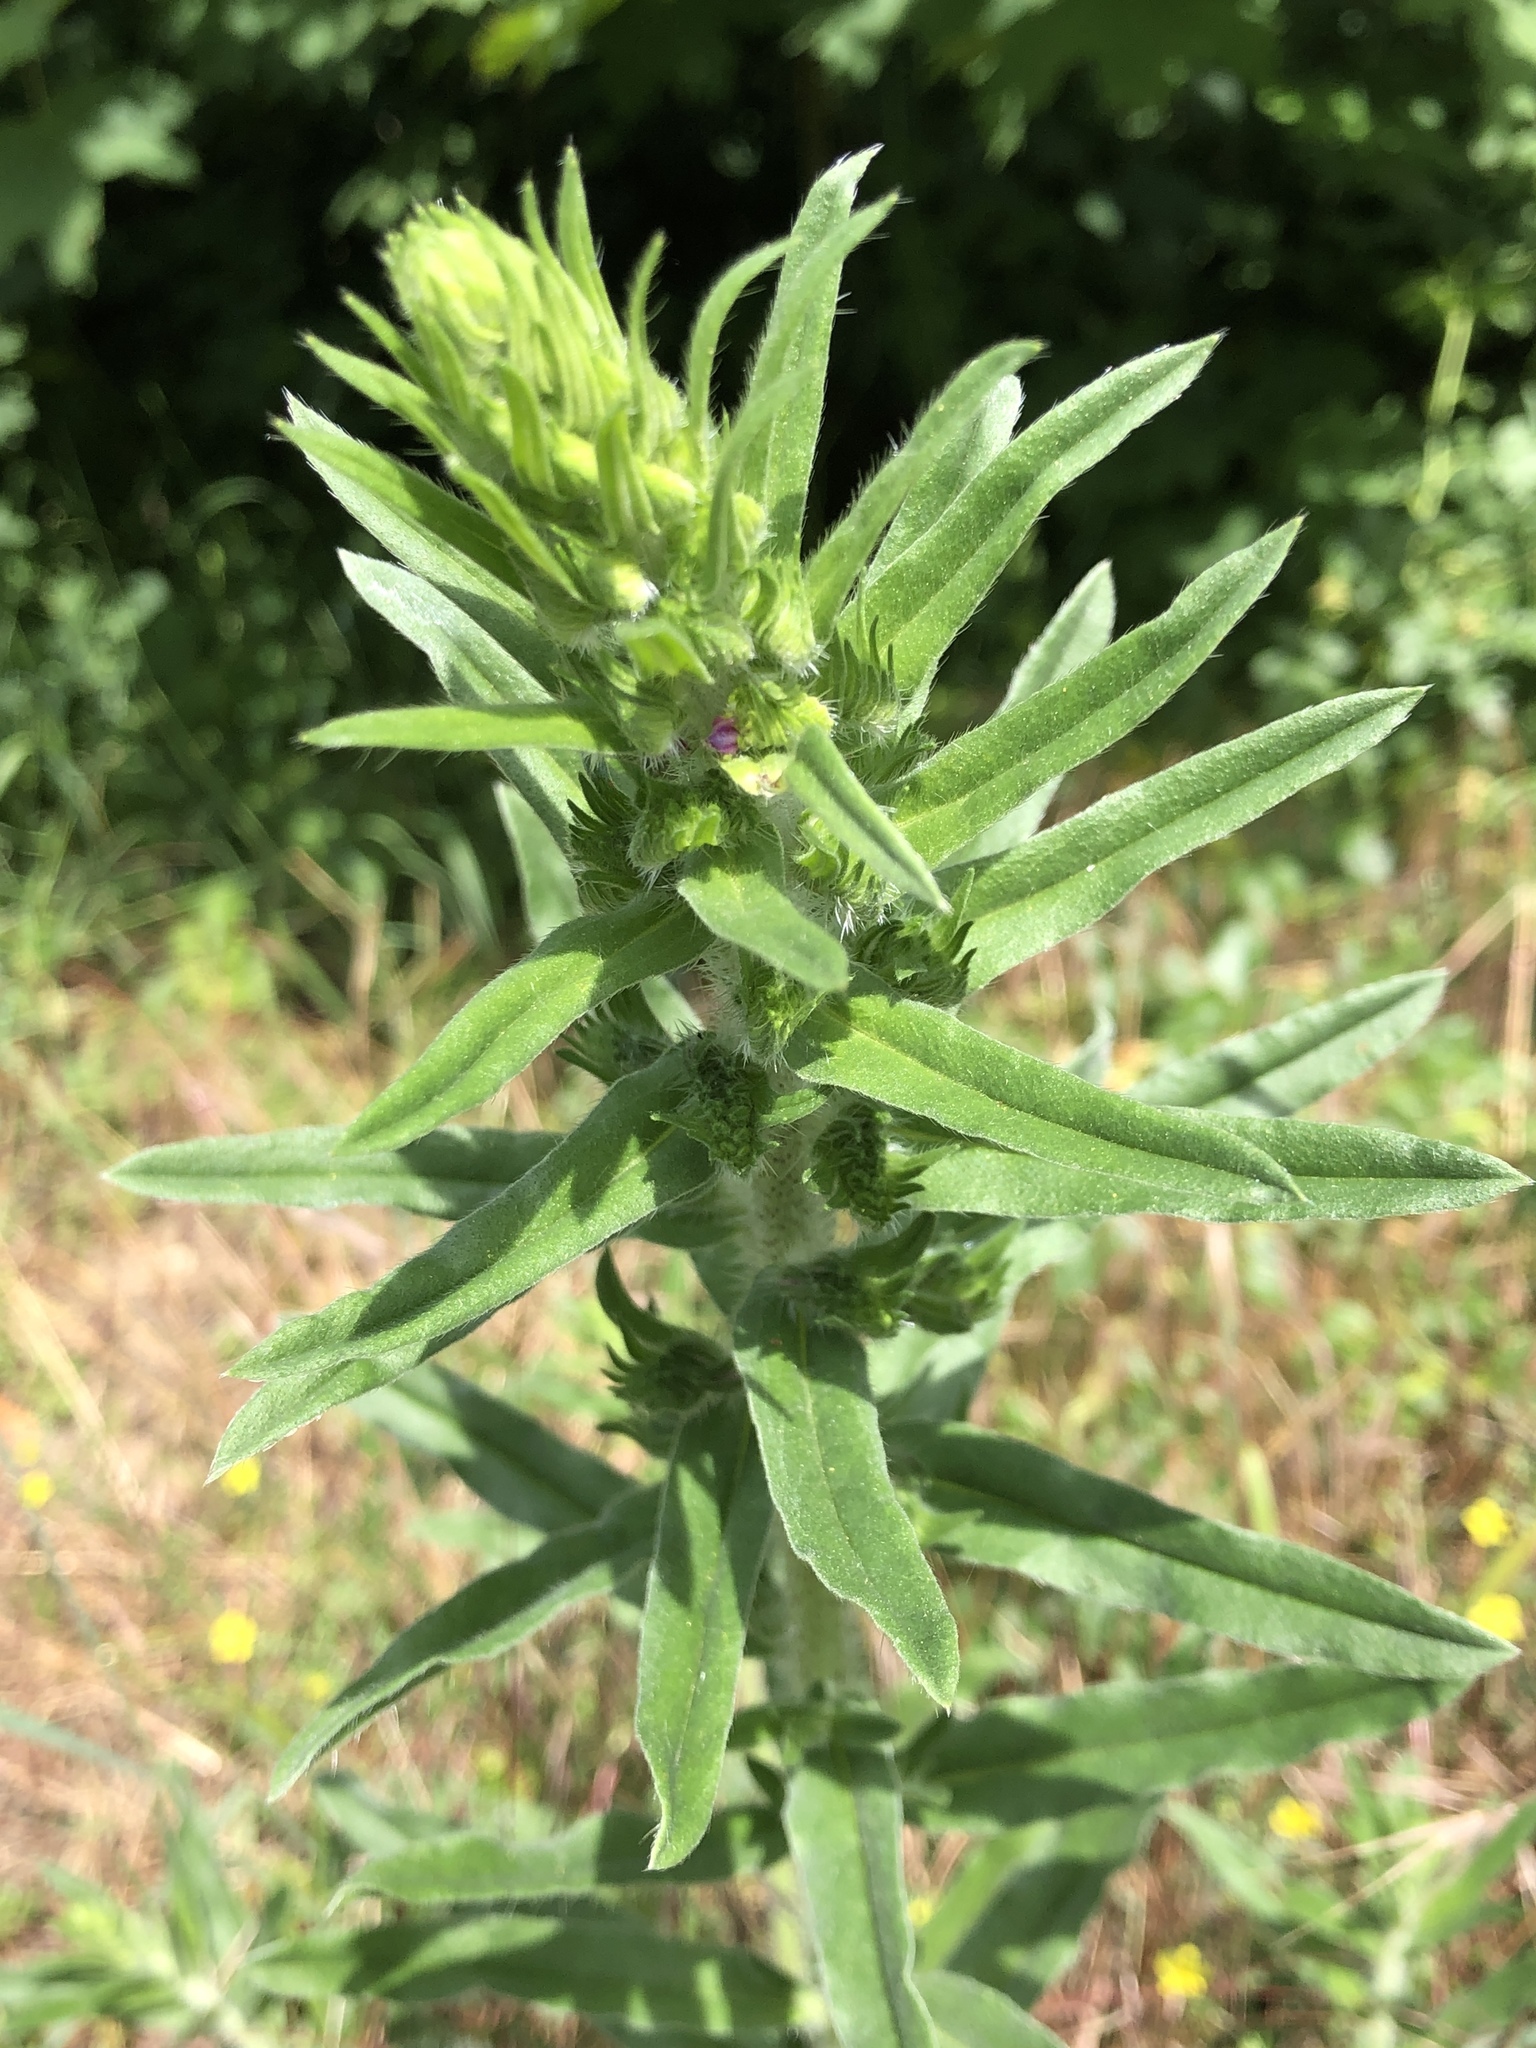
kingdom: Plantae
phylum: Tracheophyta
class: Magnoliopsida
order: Boraginales
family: Boraginaceae
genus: Echium
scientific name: Echium vulgare
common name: Common viper's bugloss
